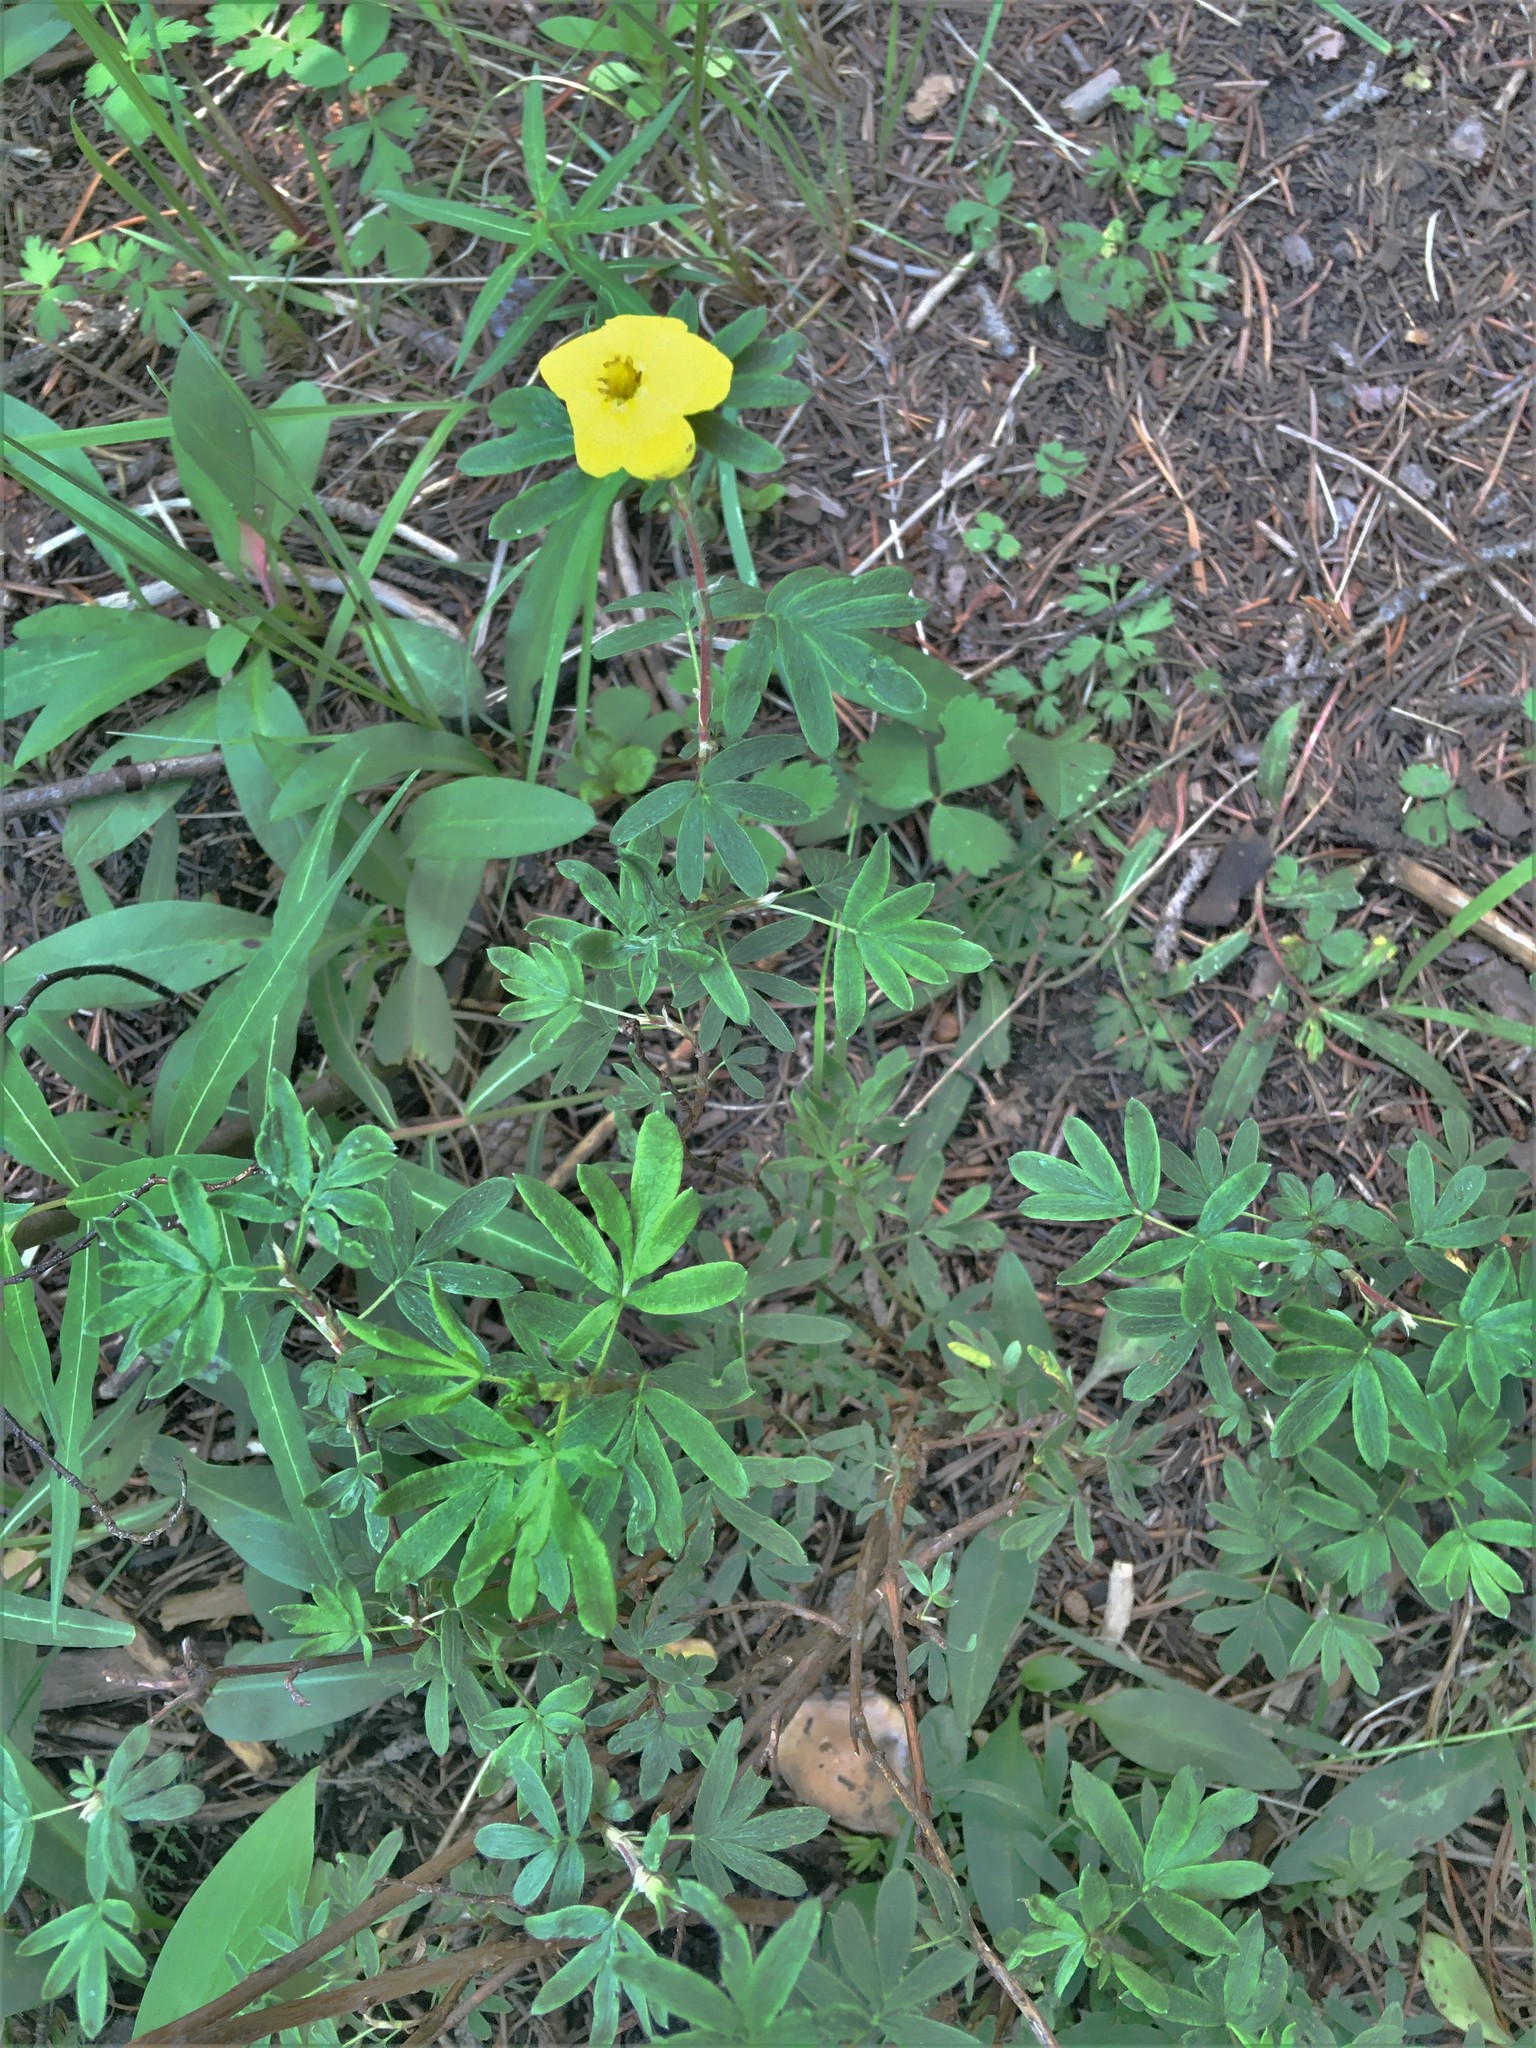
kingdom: Plantae
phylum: Tracheophyta
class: Magnoliopsida
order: Rosales
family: Rosaceae
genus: Dasiphora
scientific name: Dasiphora fruticosa
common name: Shrubby cinquefoil
